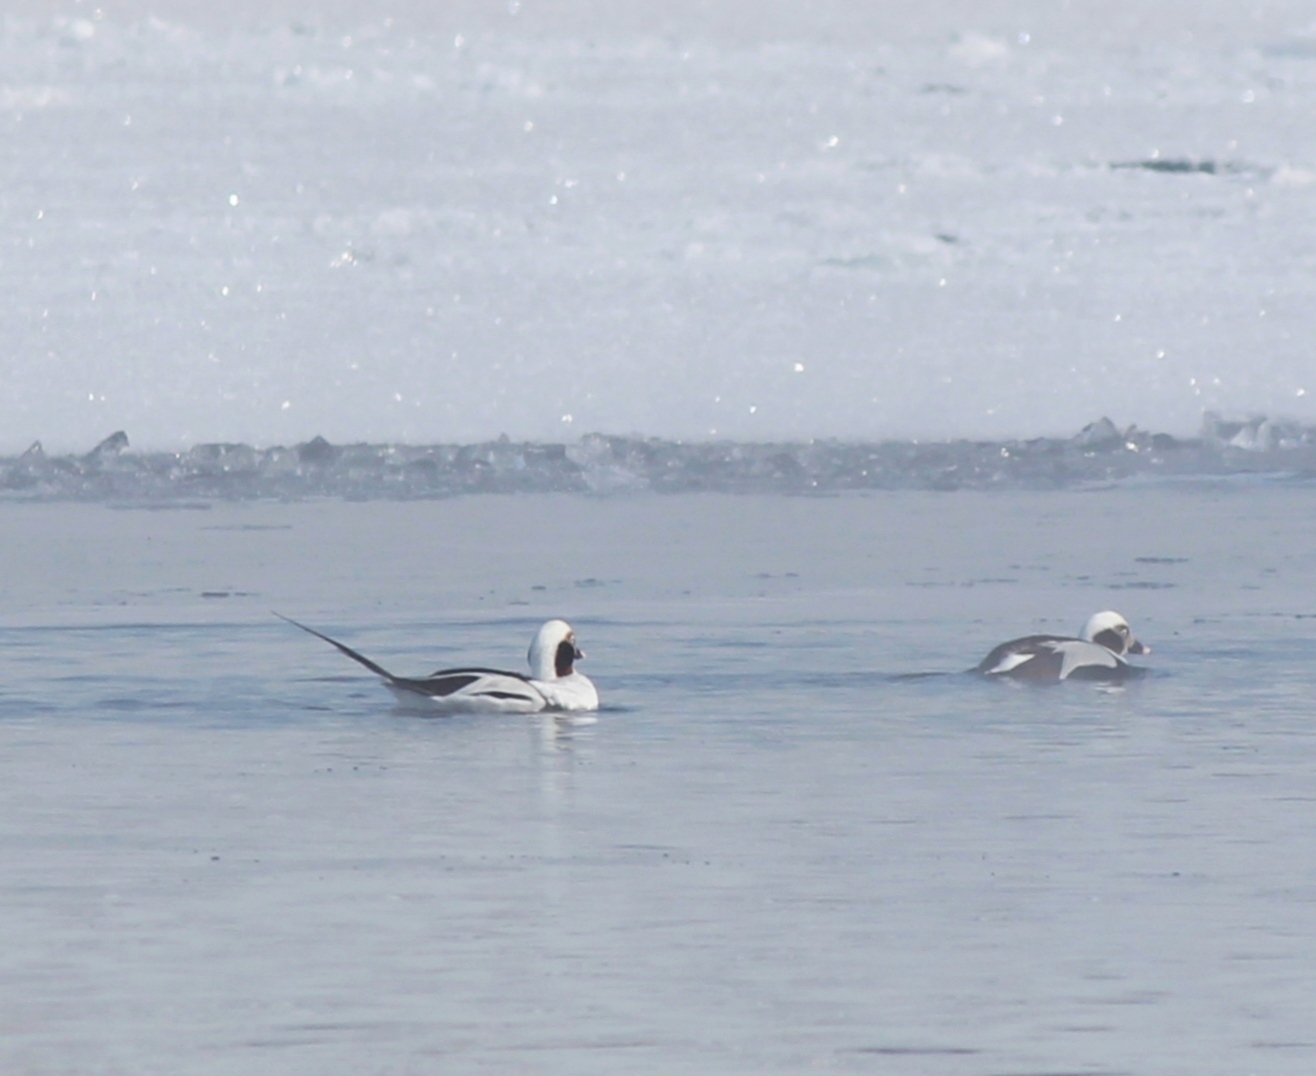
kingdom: Animalia
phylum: Chordata
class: Aves
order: Anseriformes
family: Anatidae
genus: Clangula
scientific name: Clangula hyemalis
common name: Long-tailed duck
